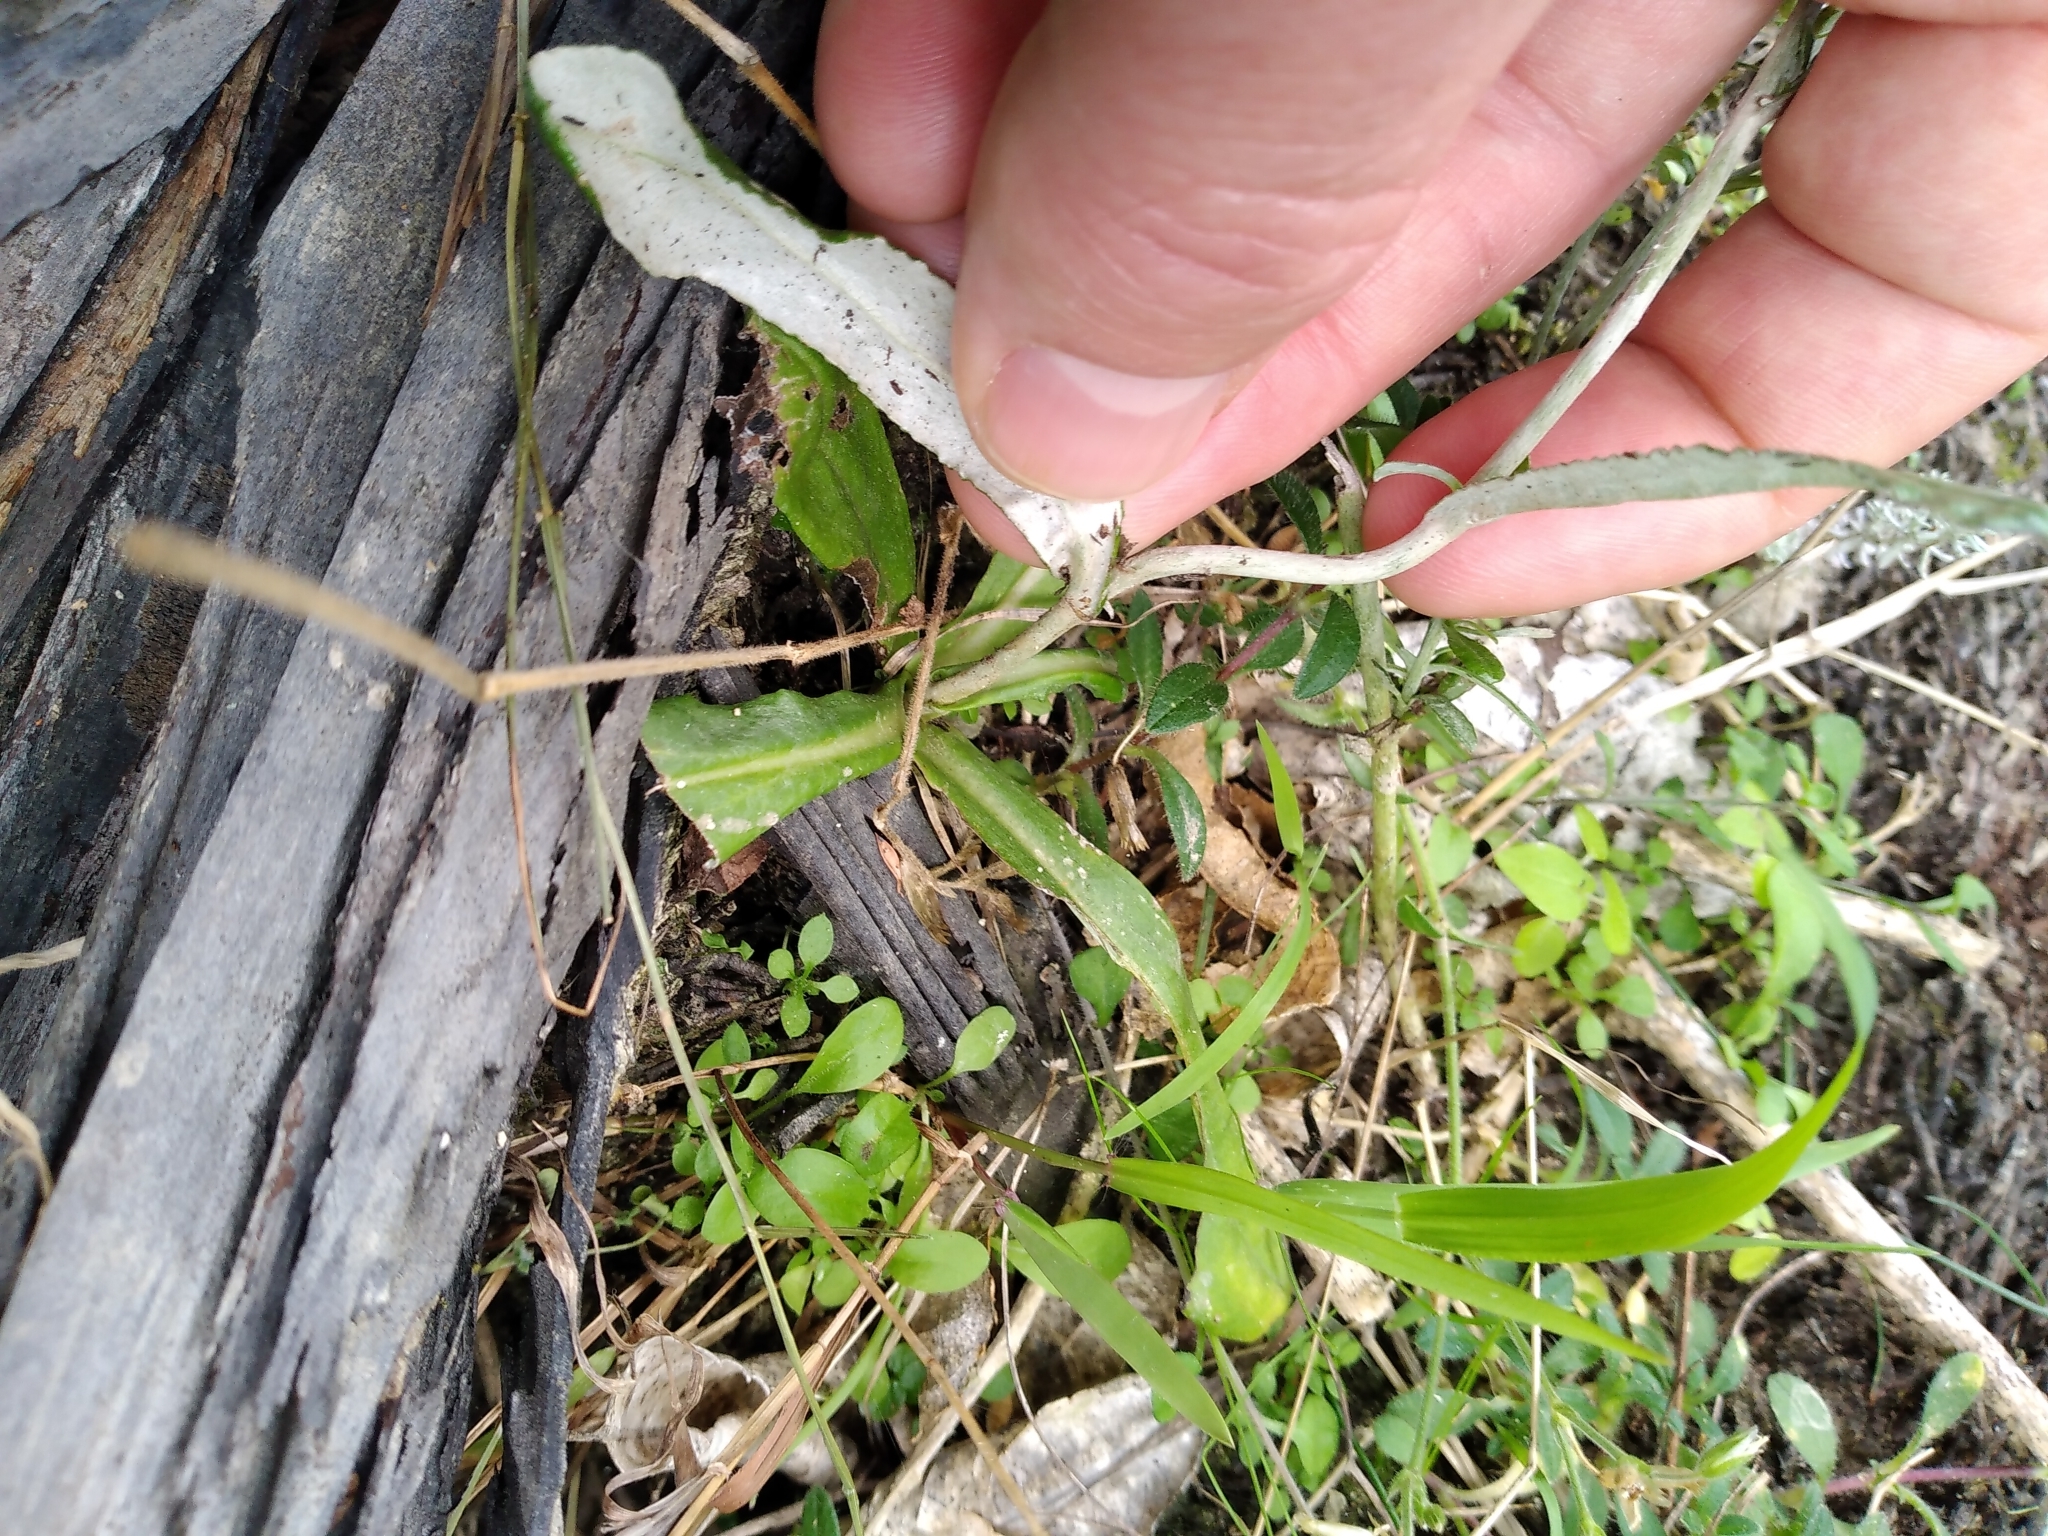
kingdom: Plantae
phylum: Tracheophyta
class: Magnoliopsida
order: Asterales
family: Asteraceae
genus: Gamochaeta
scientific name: Gamochaeta americana
